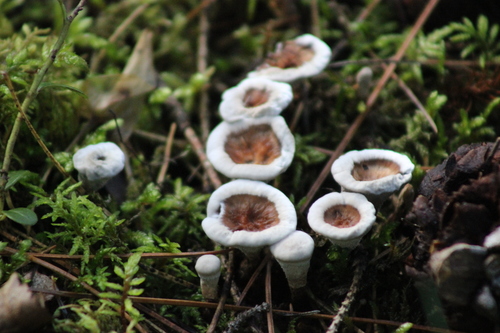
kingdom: Fungi
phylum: Basidiomycota
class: Agaricomycetes
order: Thelephorales
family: Thelephoraceae
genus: Phellodon
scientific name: Phellodon tomentosus
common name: Woolly tooth
